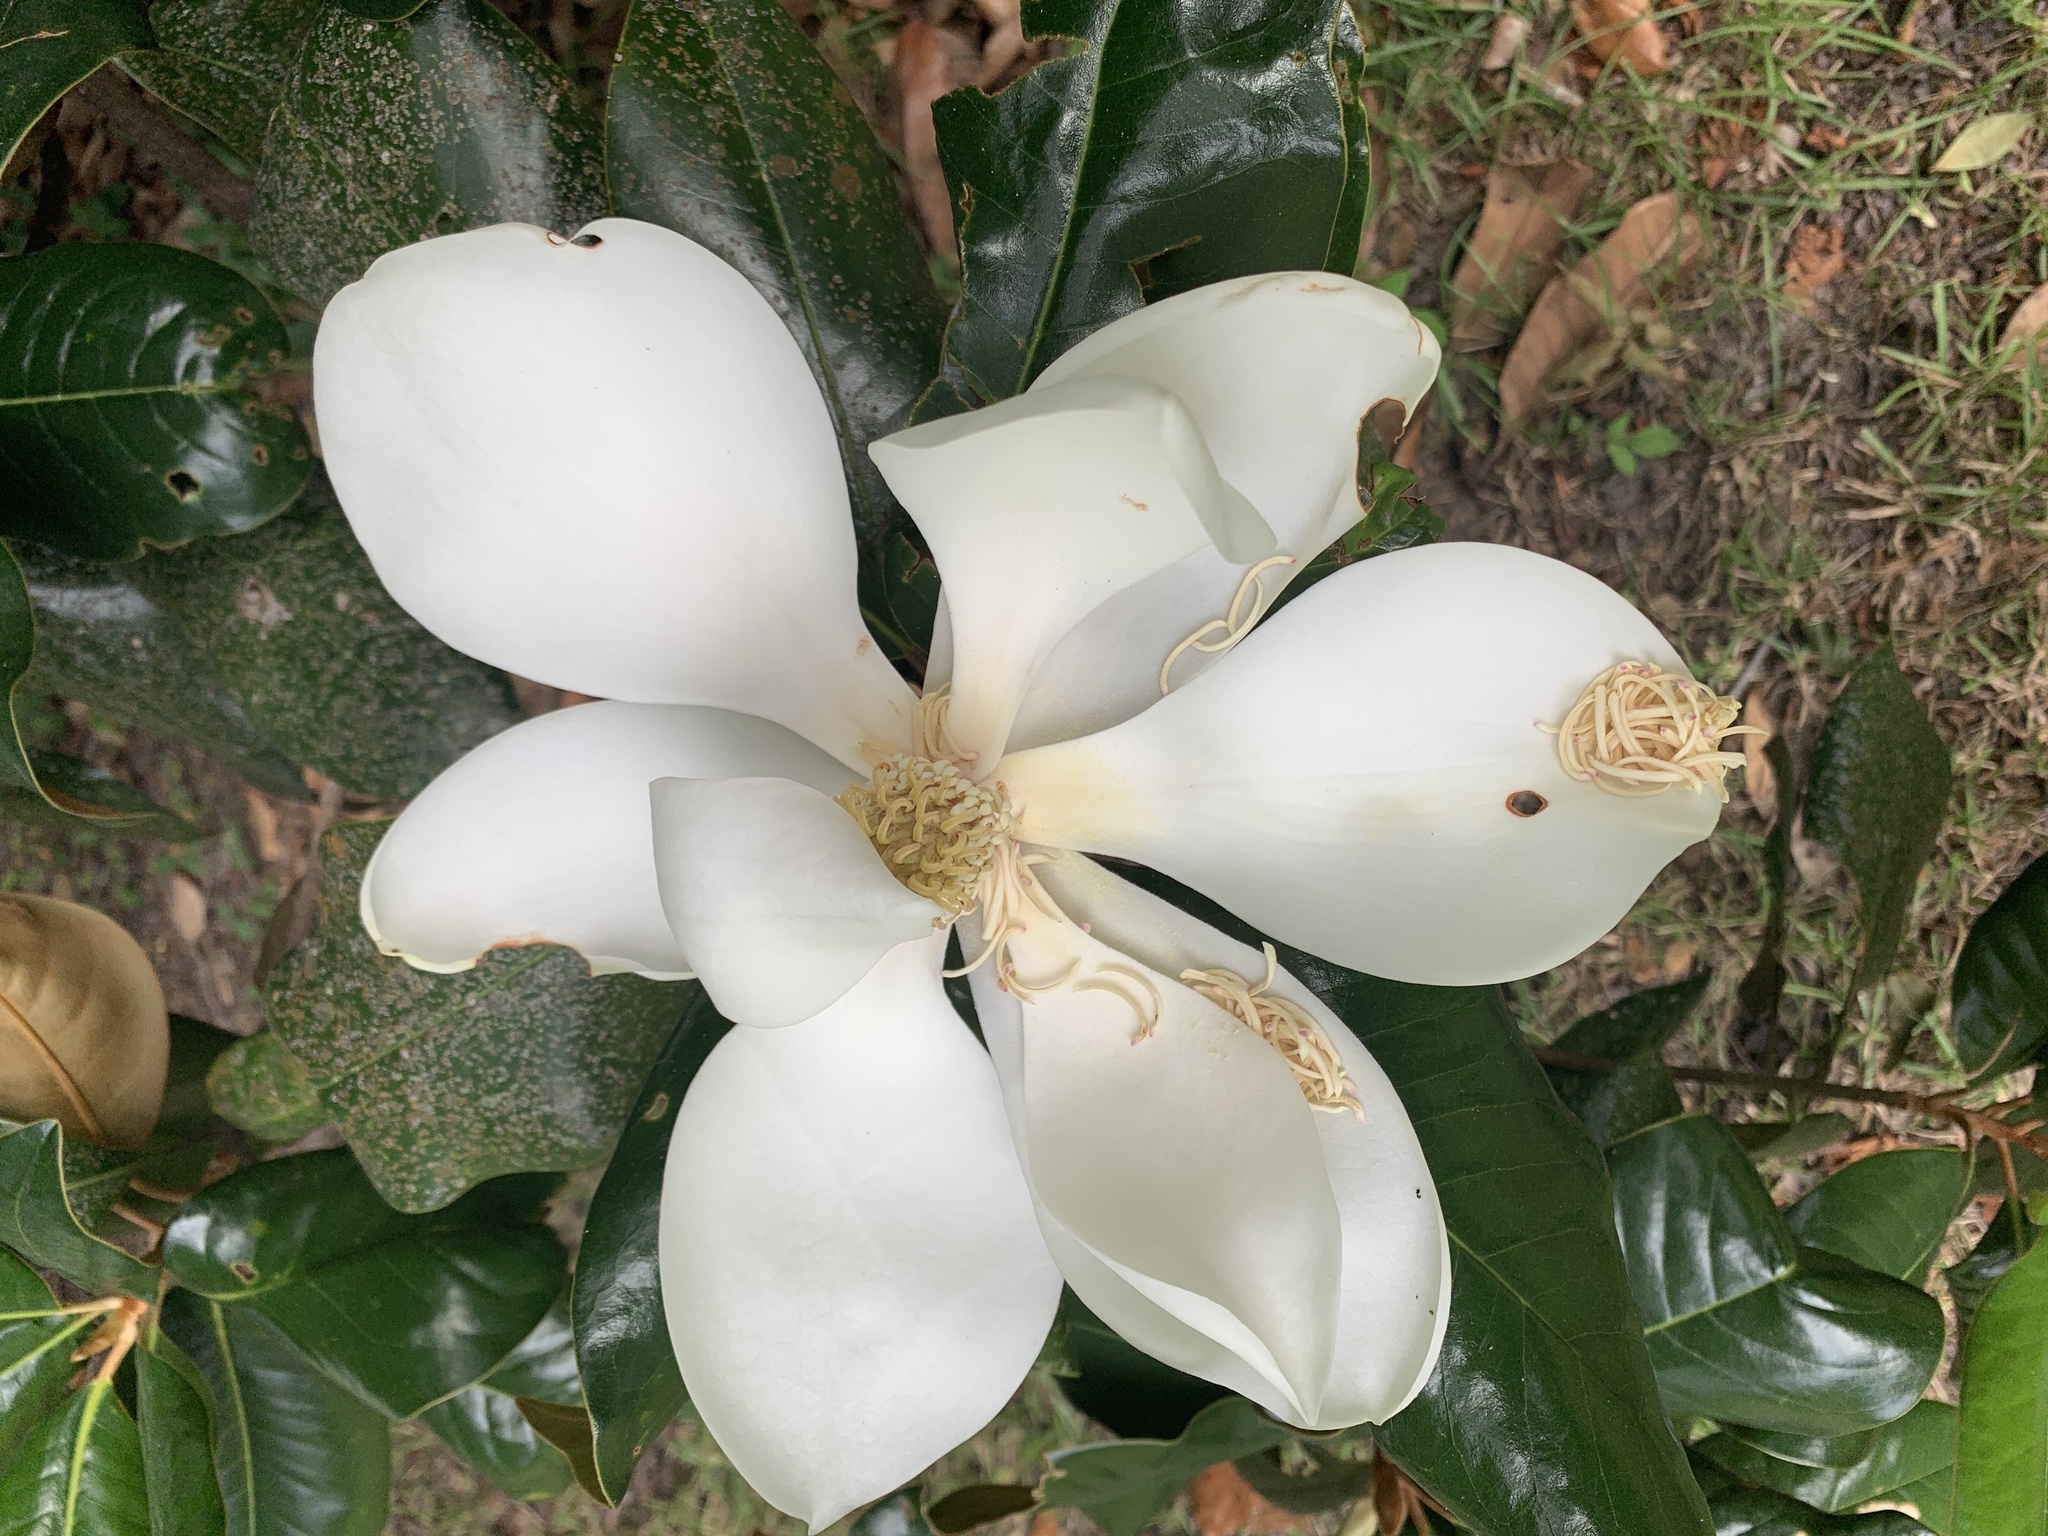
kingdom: Plantae
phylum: Tracheophyta
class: Magnoliopsida
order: Magnoliales
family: Magnoliaceae
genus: Magnolia
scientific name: Magnolia grandiflora
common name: Southern magnolia
